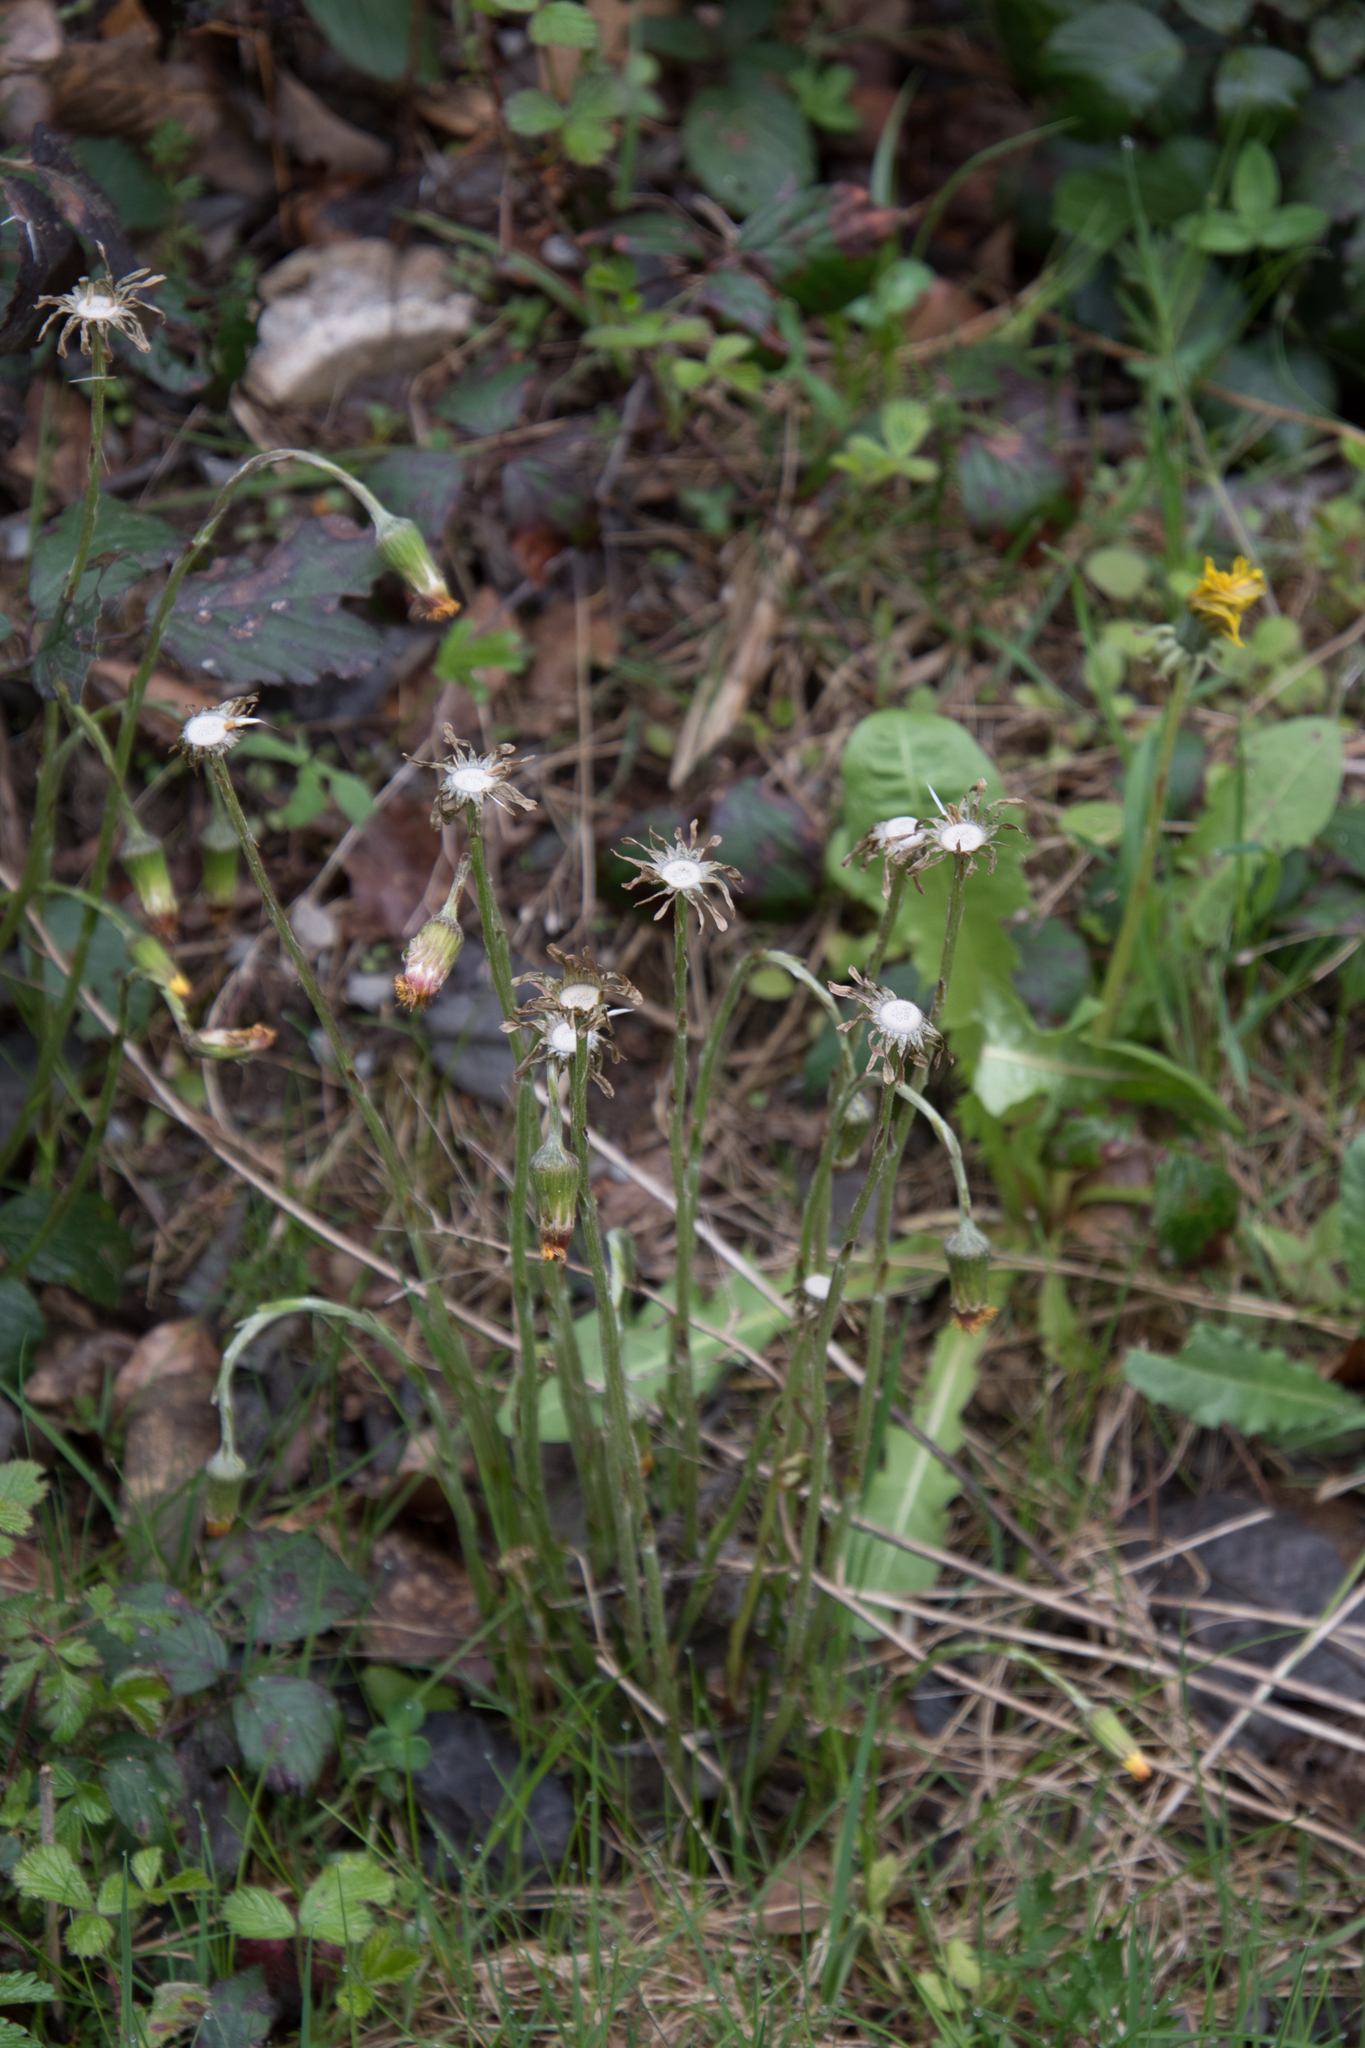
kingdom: Plantae
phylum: Tracheophyta
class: Magnoliopsida
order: Asterales
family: Asteraceae
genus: Tussilago
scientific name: Tussilago farfara
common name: Coltsfoot
